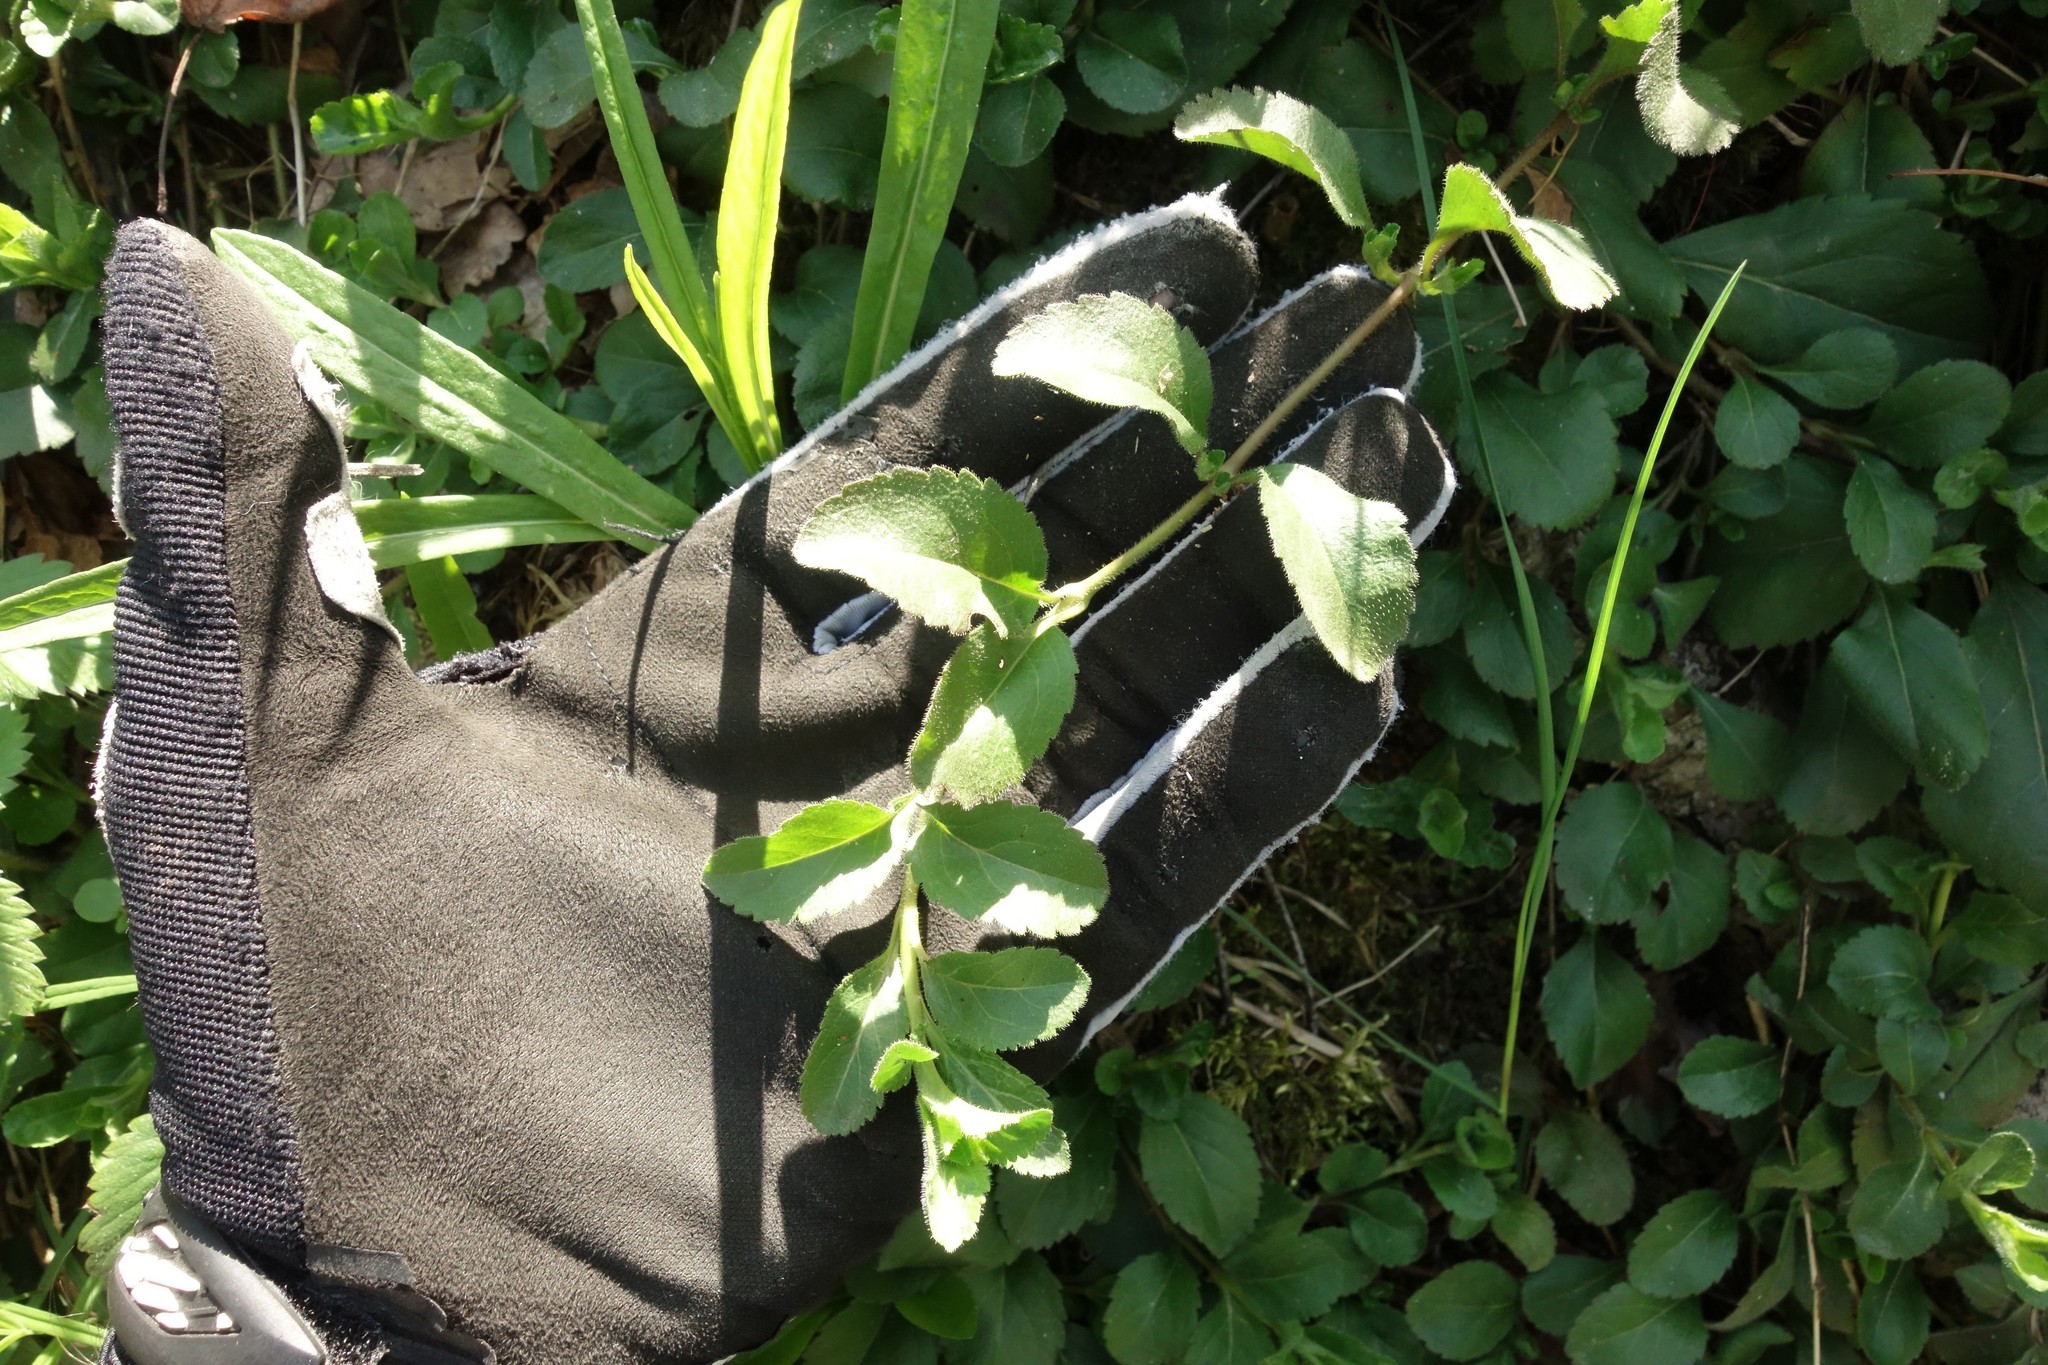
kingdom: Plantae
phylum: Tracheophyta
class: Magnoliopsida
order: Lamiales
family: Plantaginaceae
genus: Veronica
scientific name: Veronica officinalis
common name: Common speedwell
